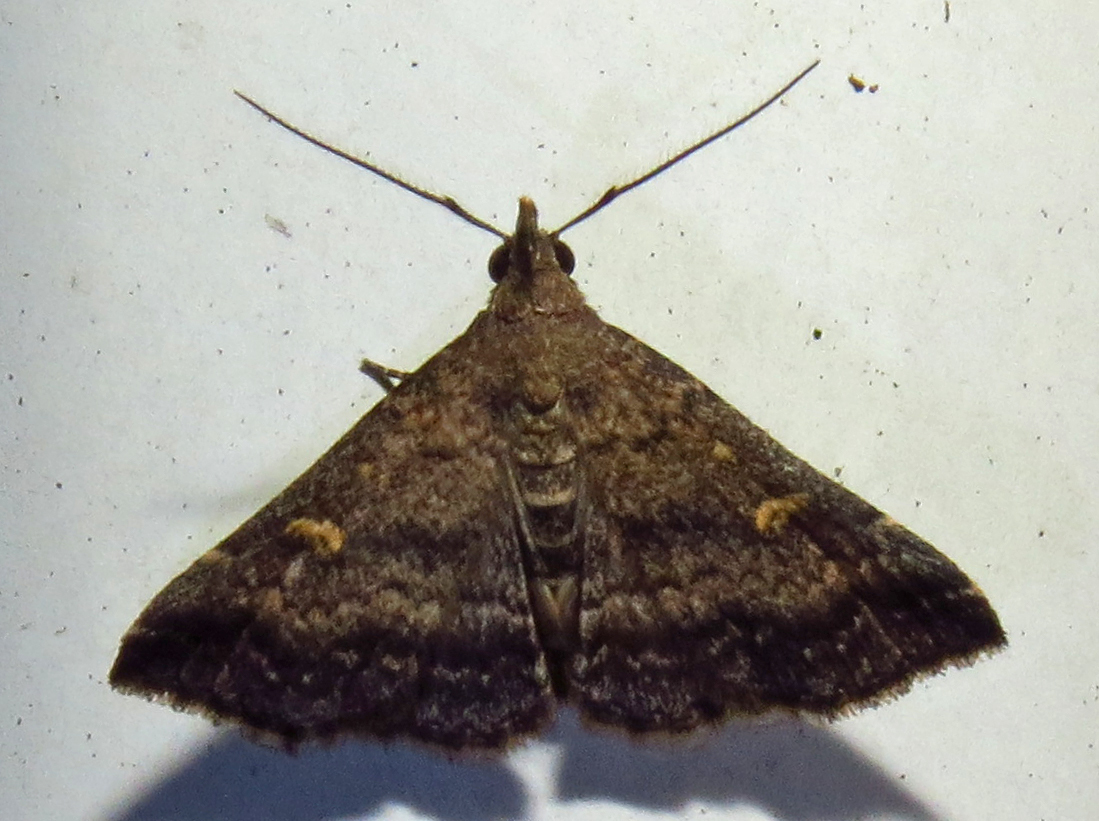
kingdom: Animalia
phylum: Arthropoda
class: Insecta
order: Lepidoptera
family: Erebidae
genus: Tetanolita
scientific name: Tetanolita floridana
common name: Florida tetanolita moth
